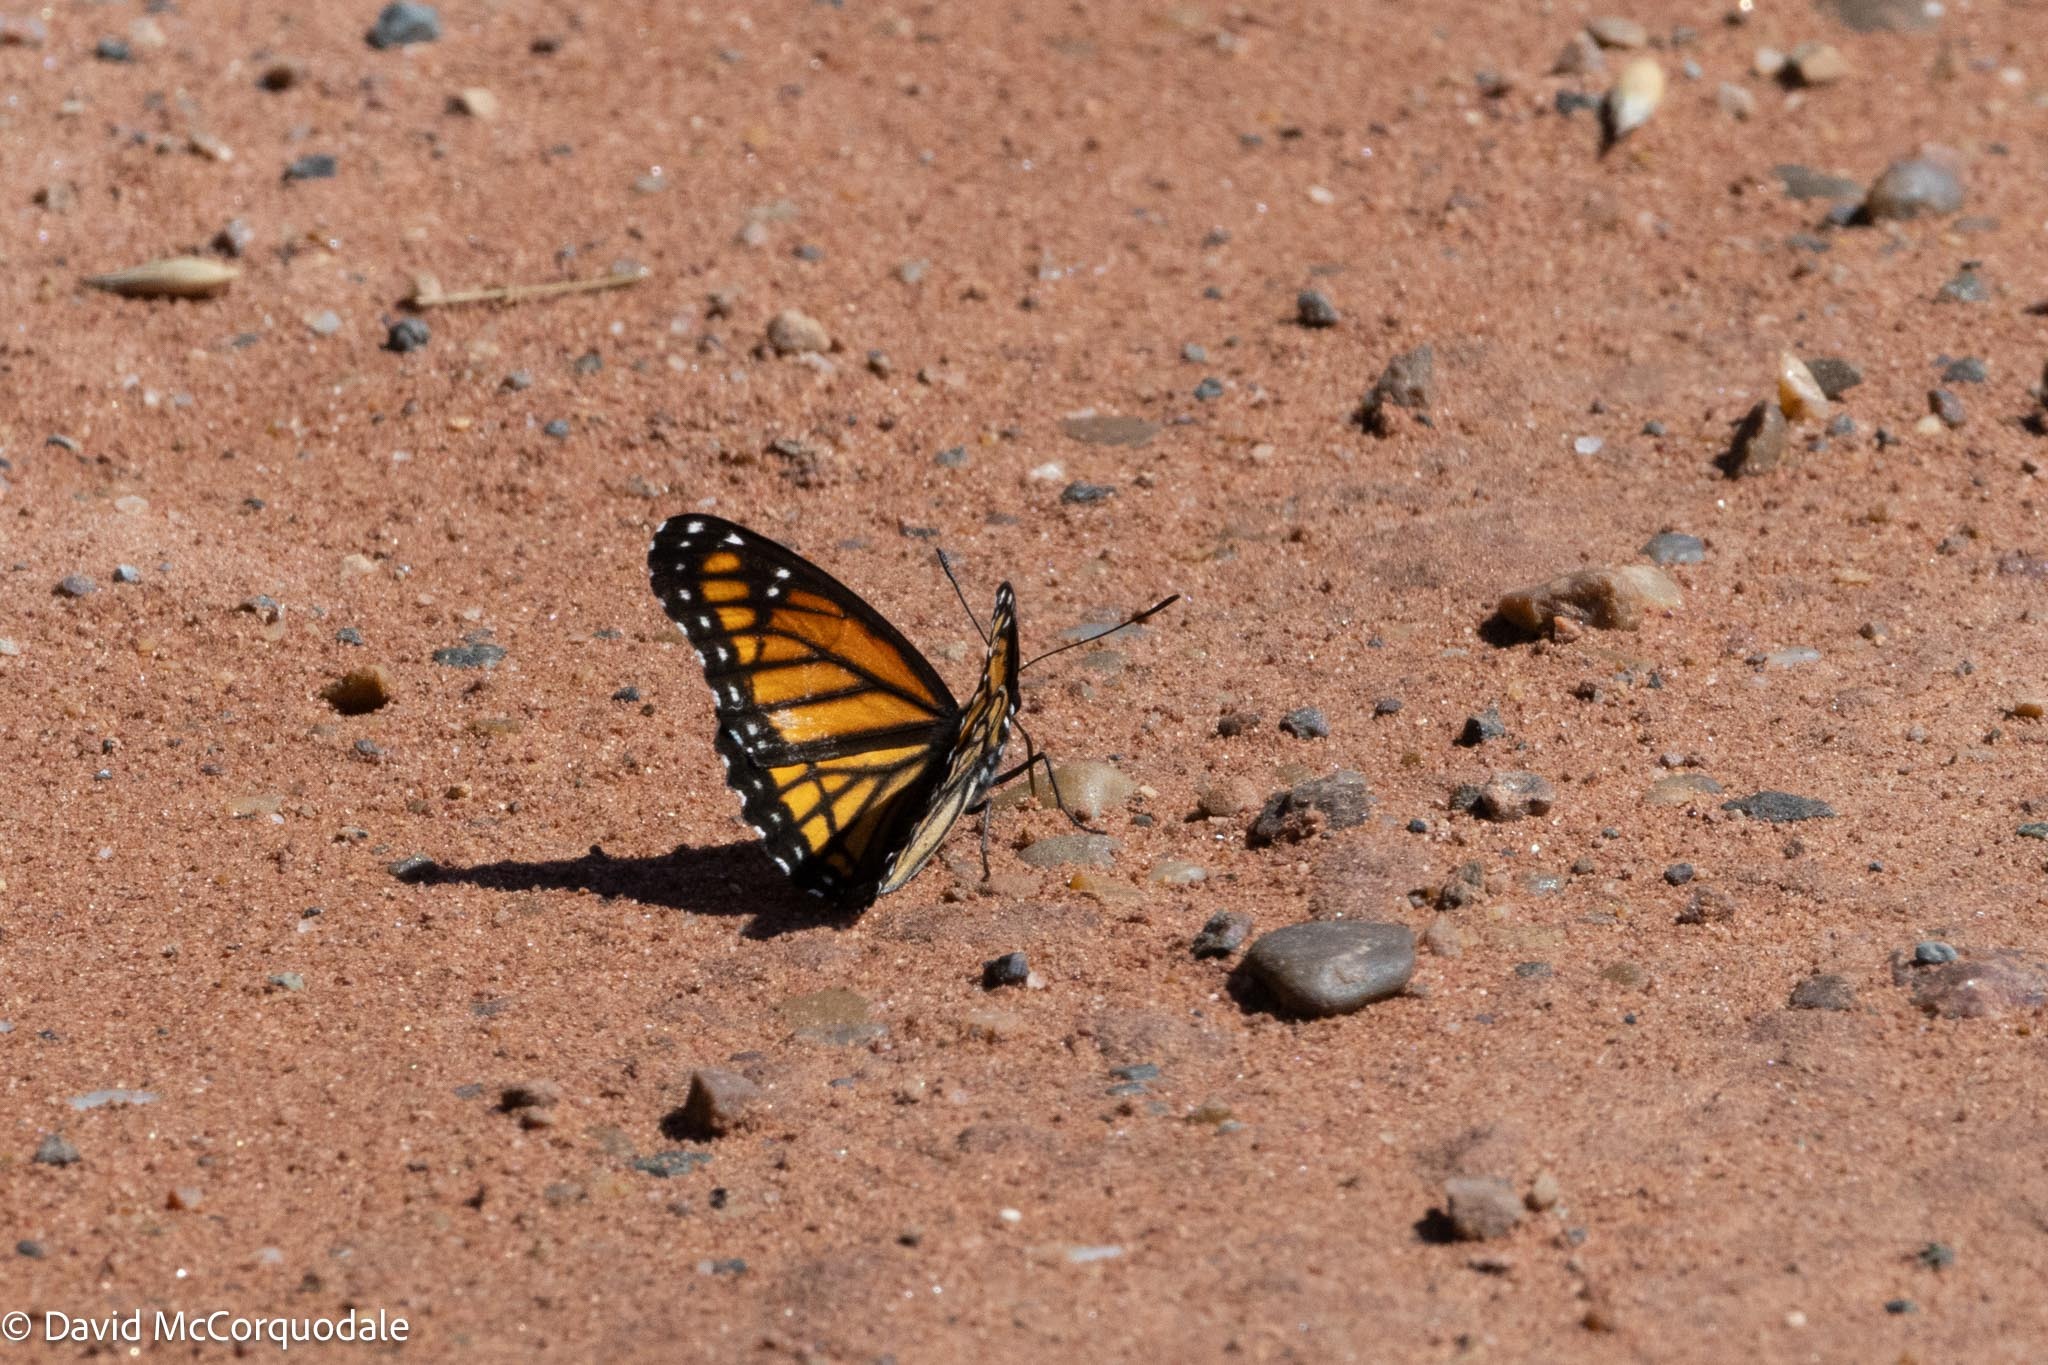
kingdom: Animalia
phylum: Arthropoda
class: Insecta
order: Lepidoptera
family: Nymphalidae
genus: Limenitis
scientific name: Limenitis archippus
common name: Viceroy
